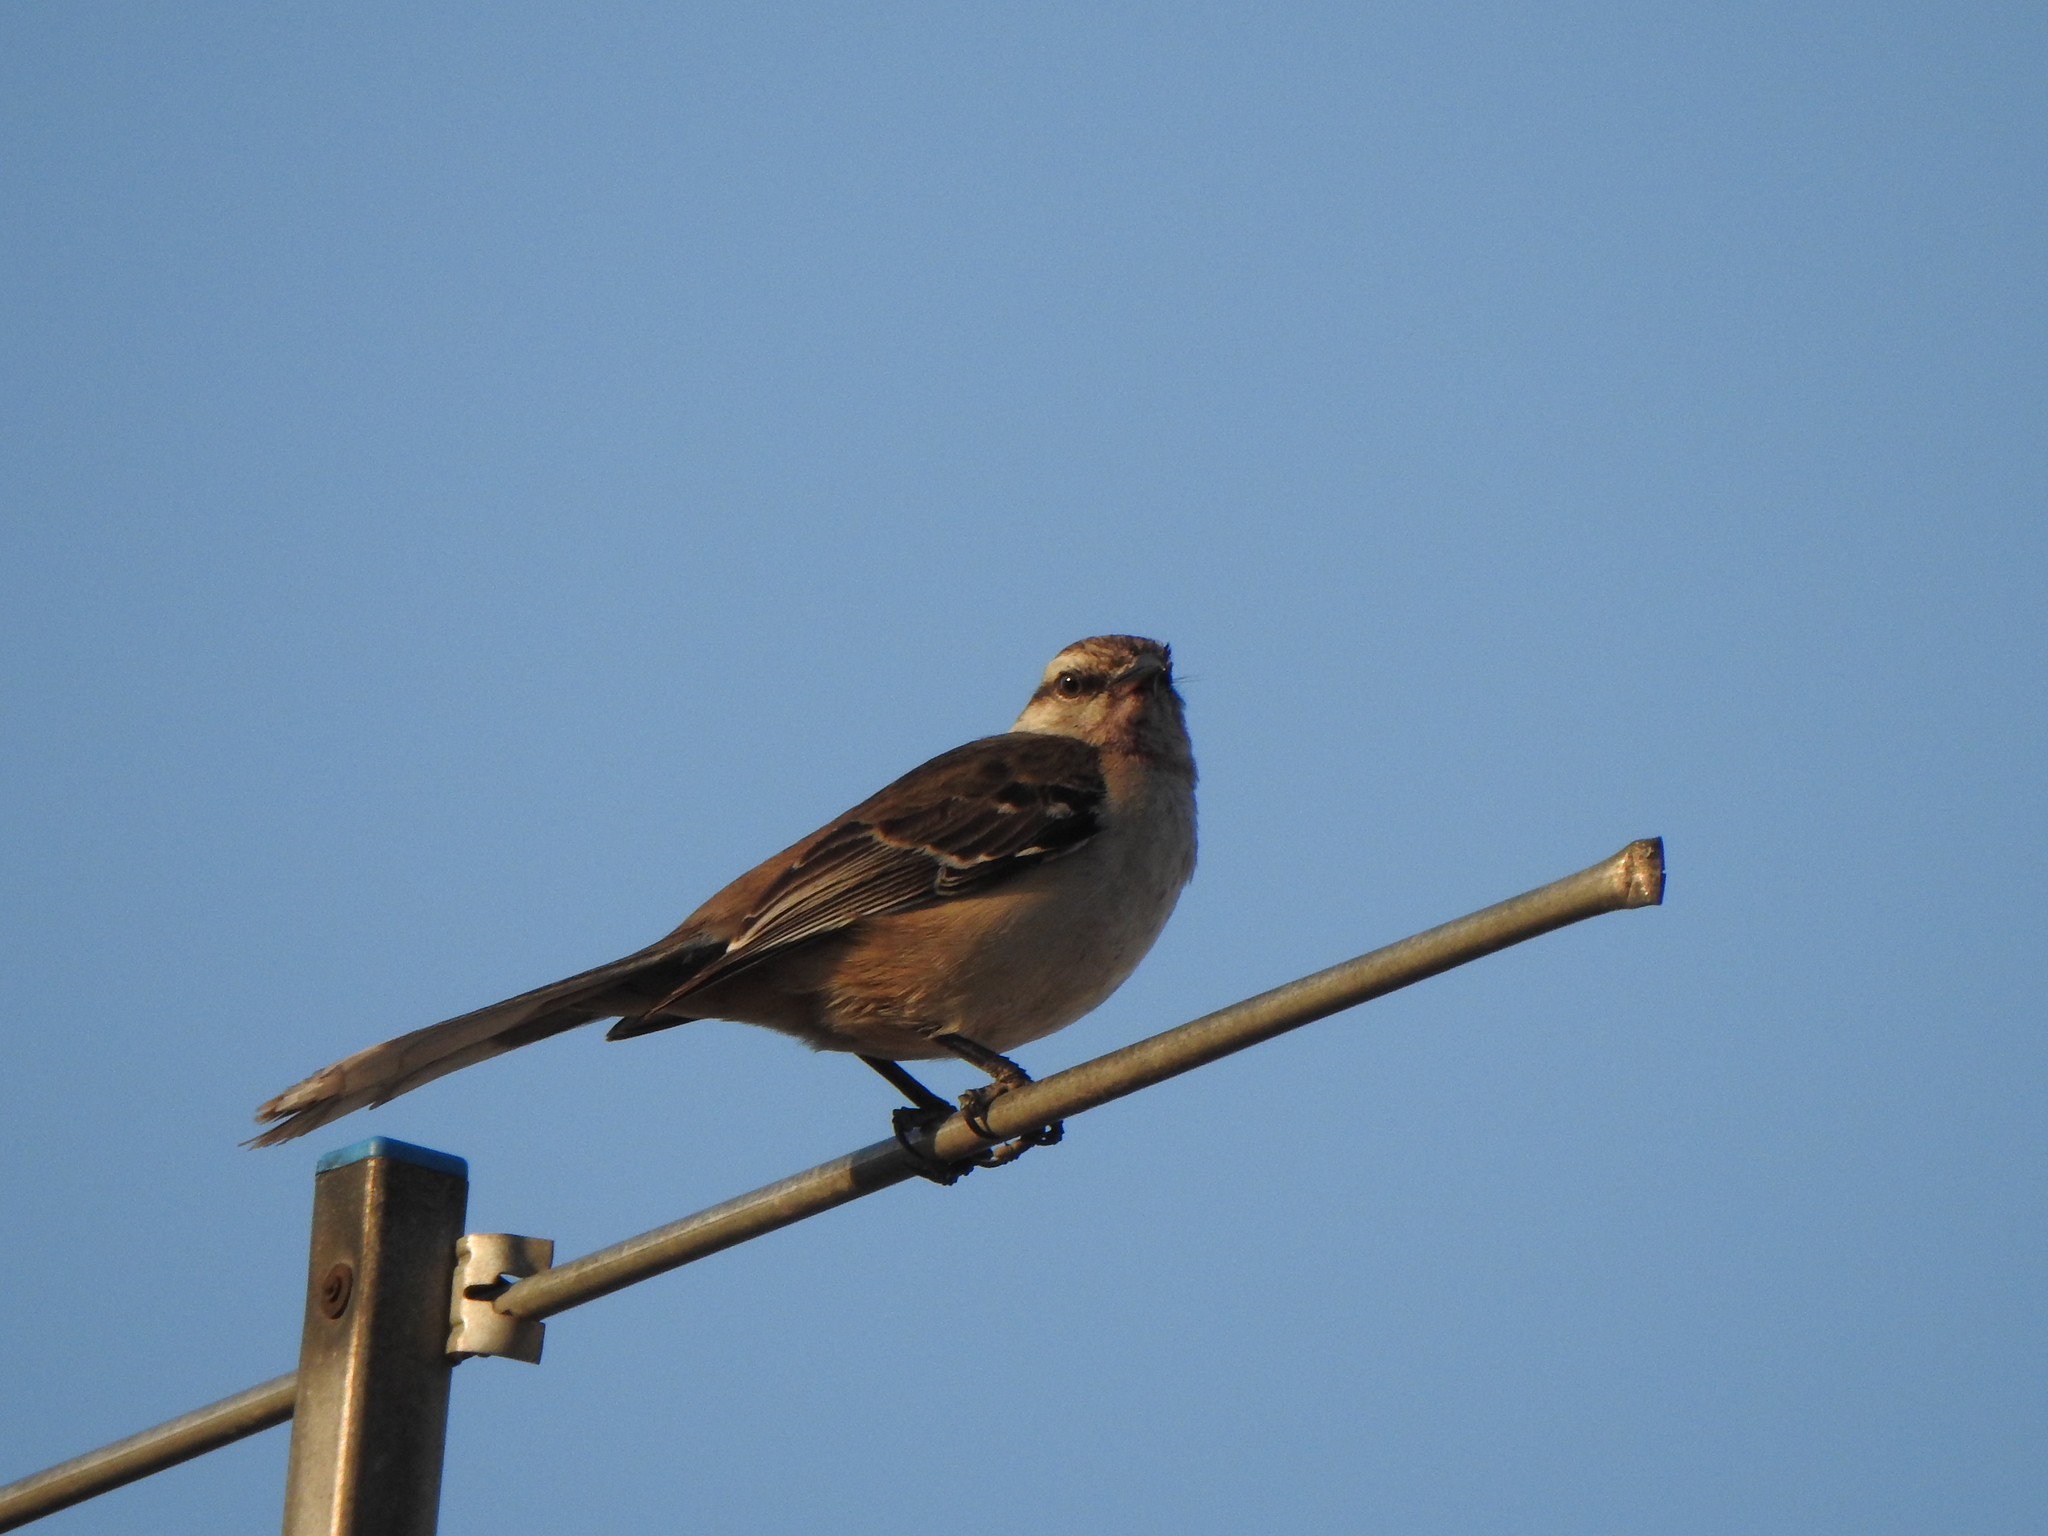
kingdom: Animalia
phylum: Chordata
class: Aves
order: Passeriformes
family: Mimidae
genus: Mimus
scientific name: Mimus saturninus
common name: Chalk-browed mockingbird
